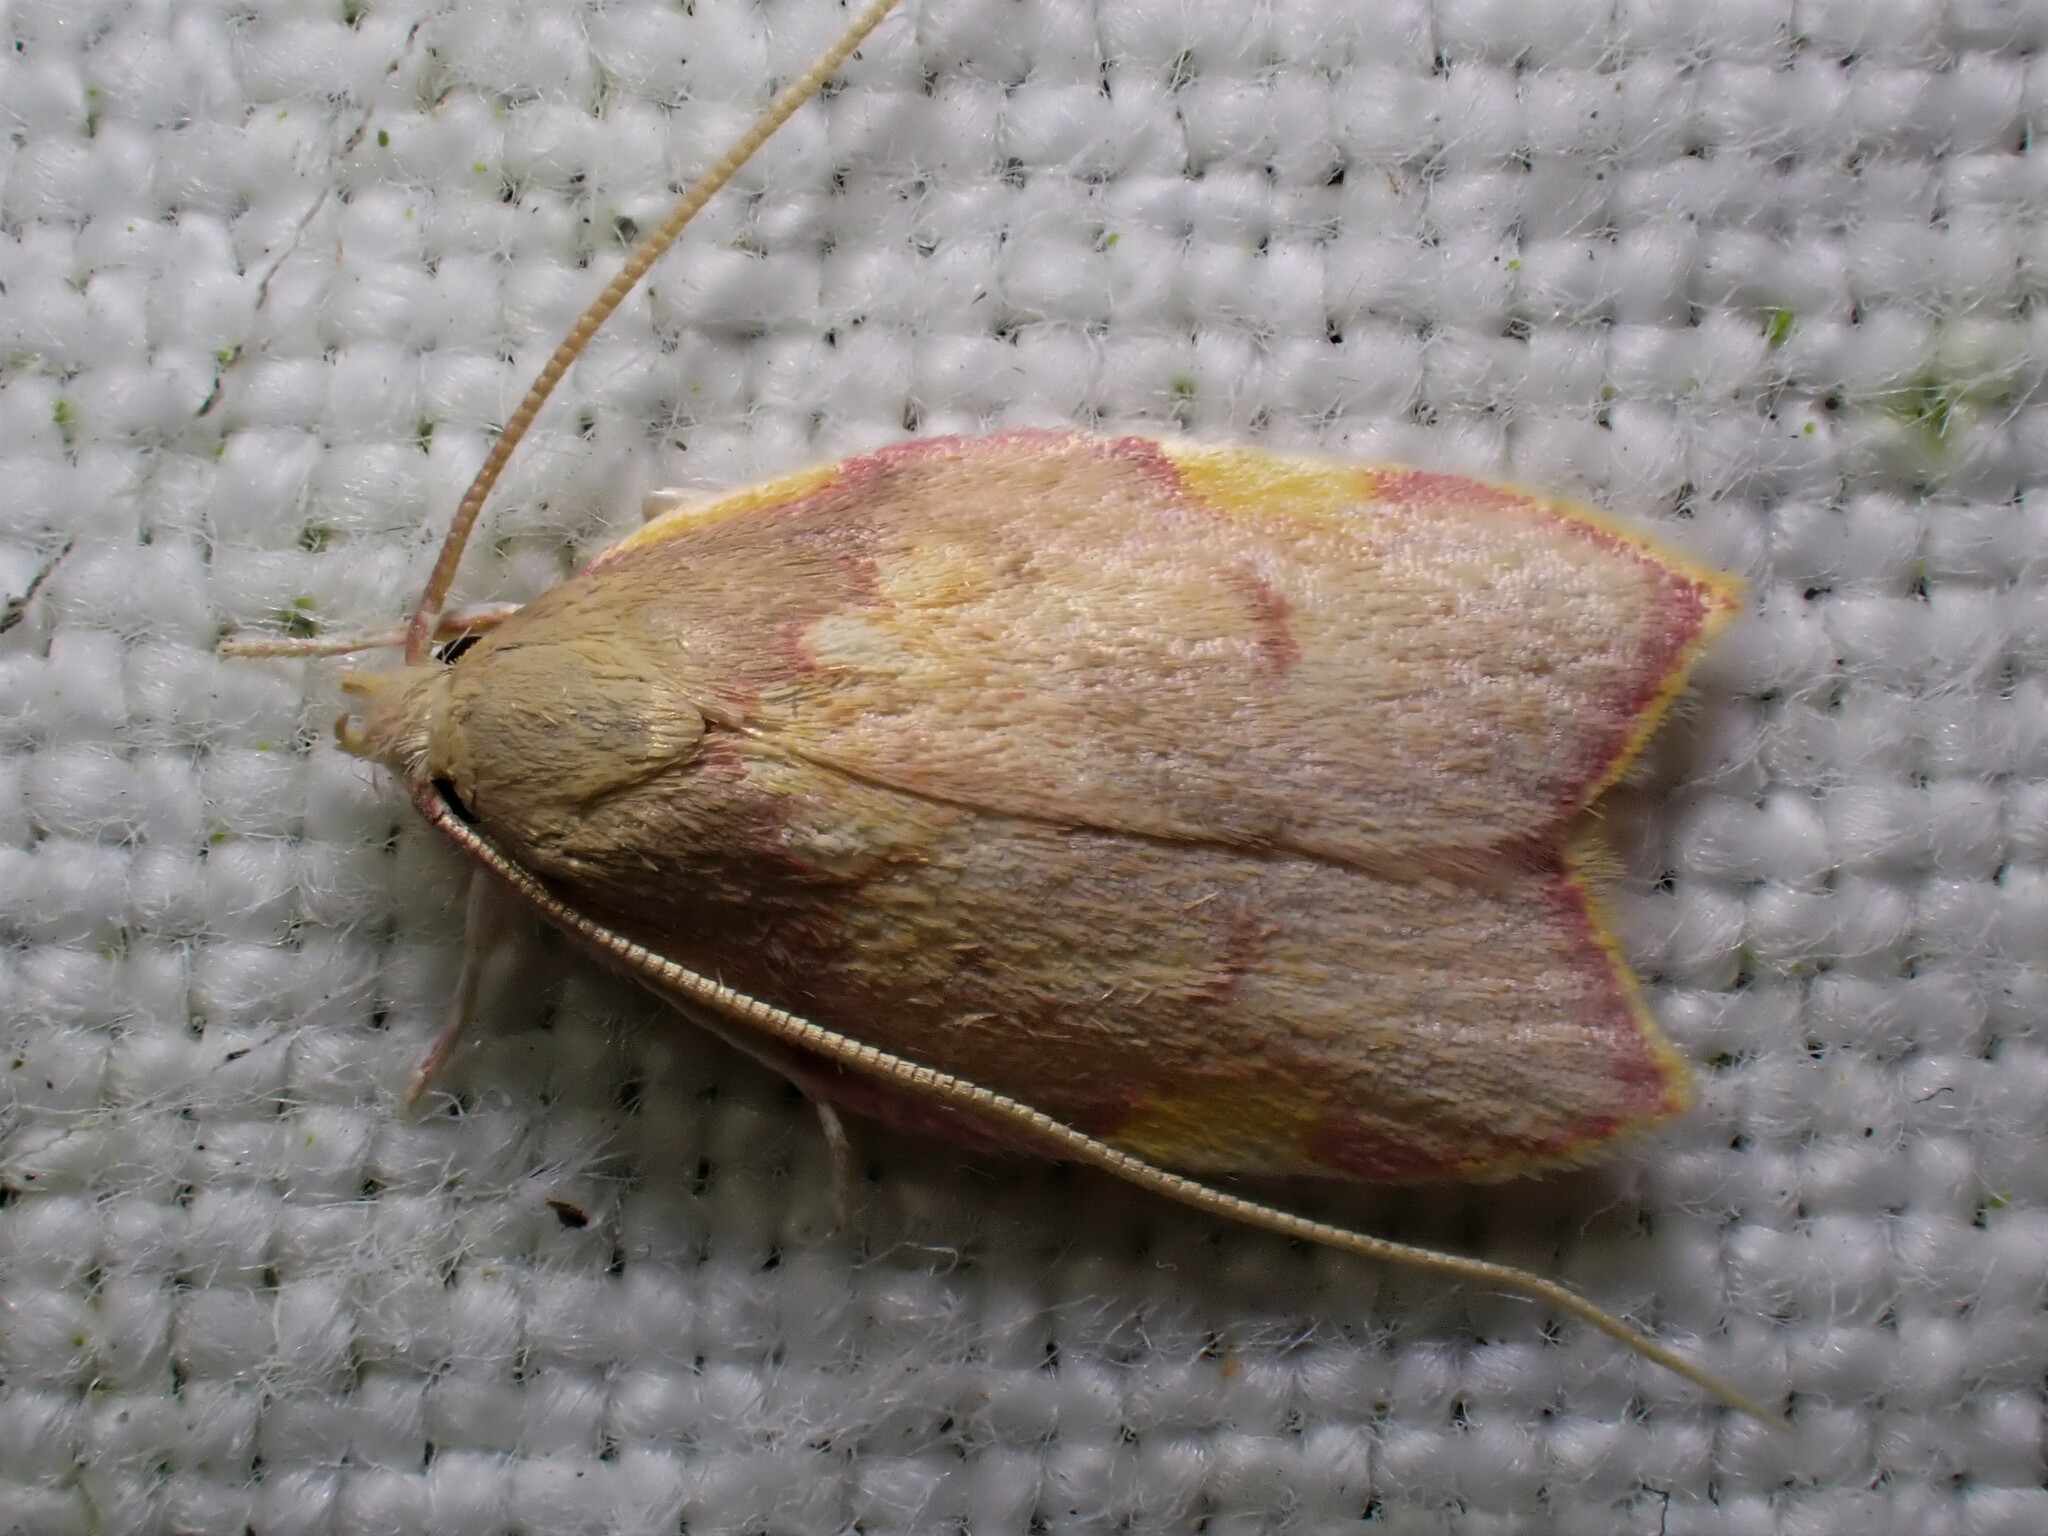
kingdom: Animalia
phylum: Arthropoda
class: Insecta
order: Lepidoptera
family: Peleopodidae
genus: Carcina
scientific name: Carcina quercana
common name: Moth
